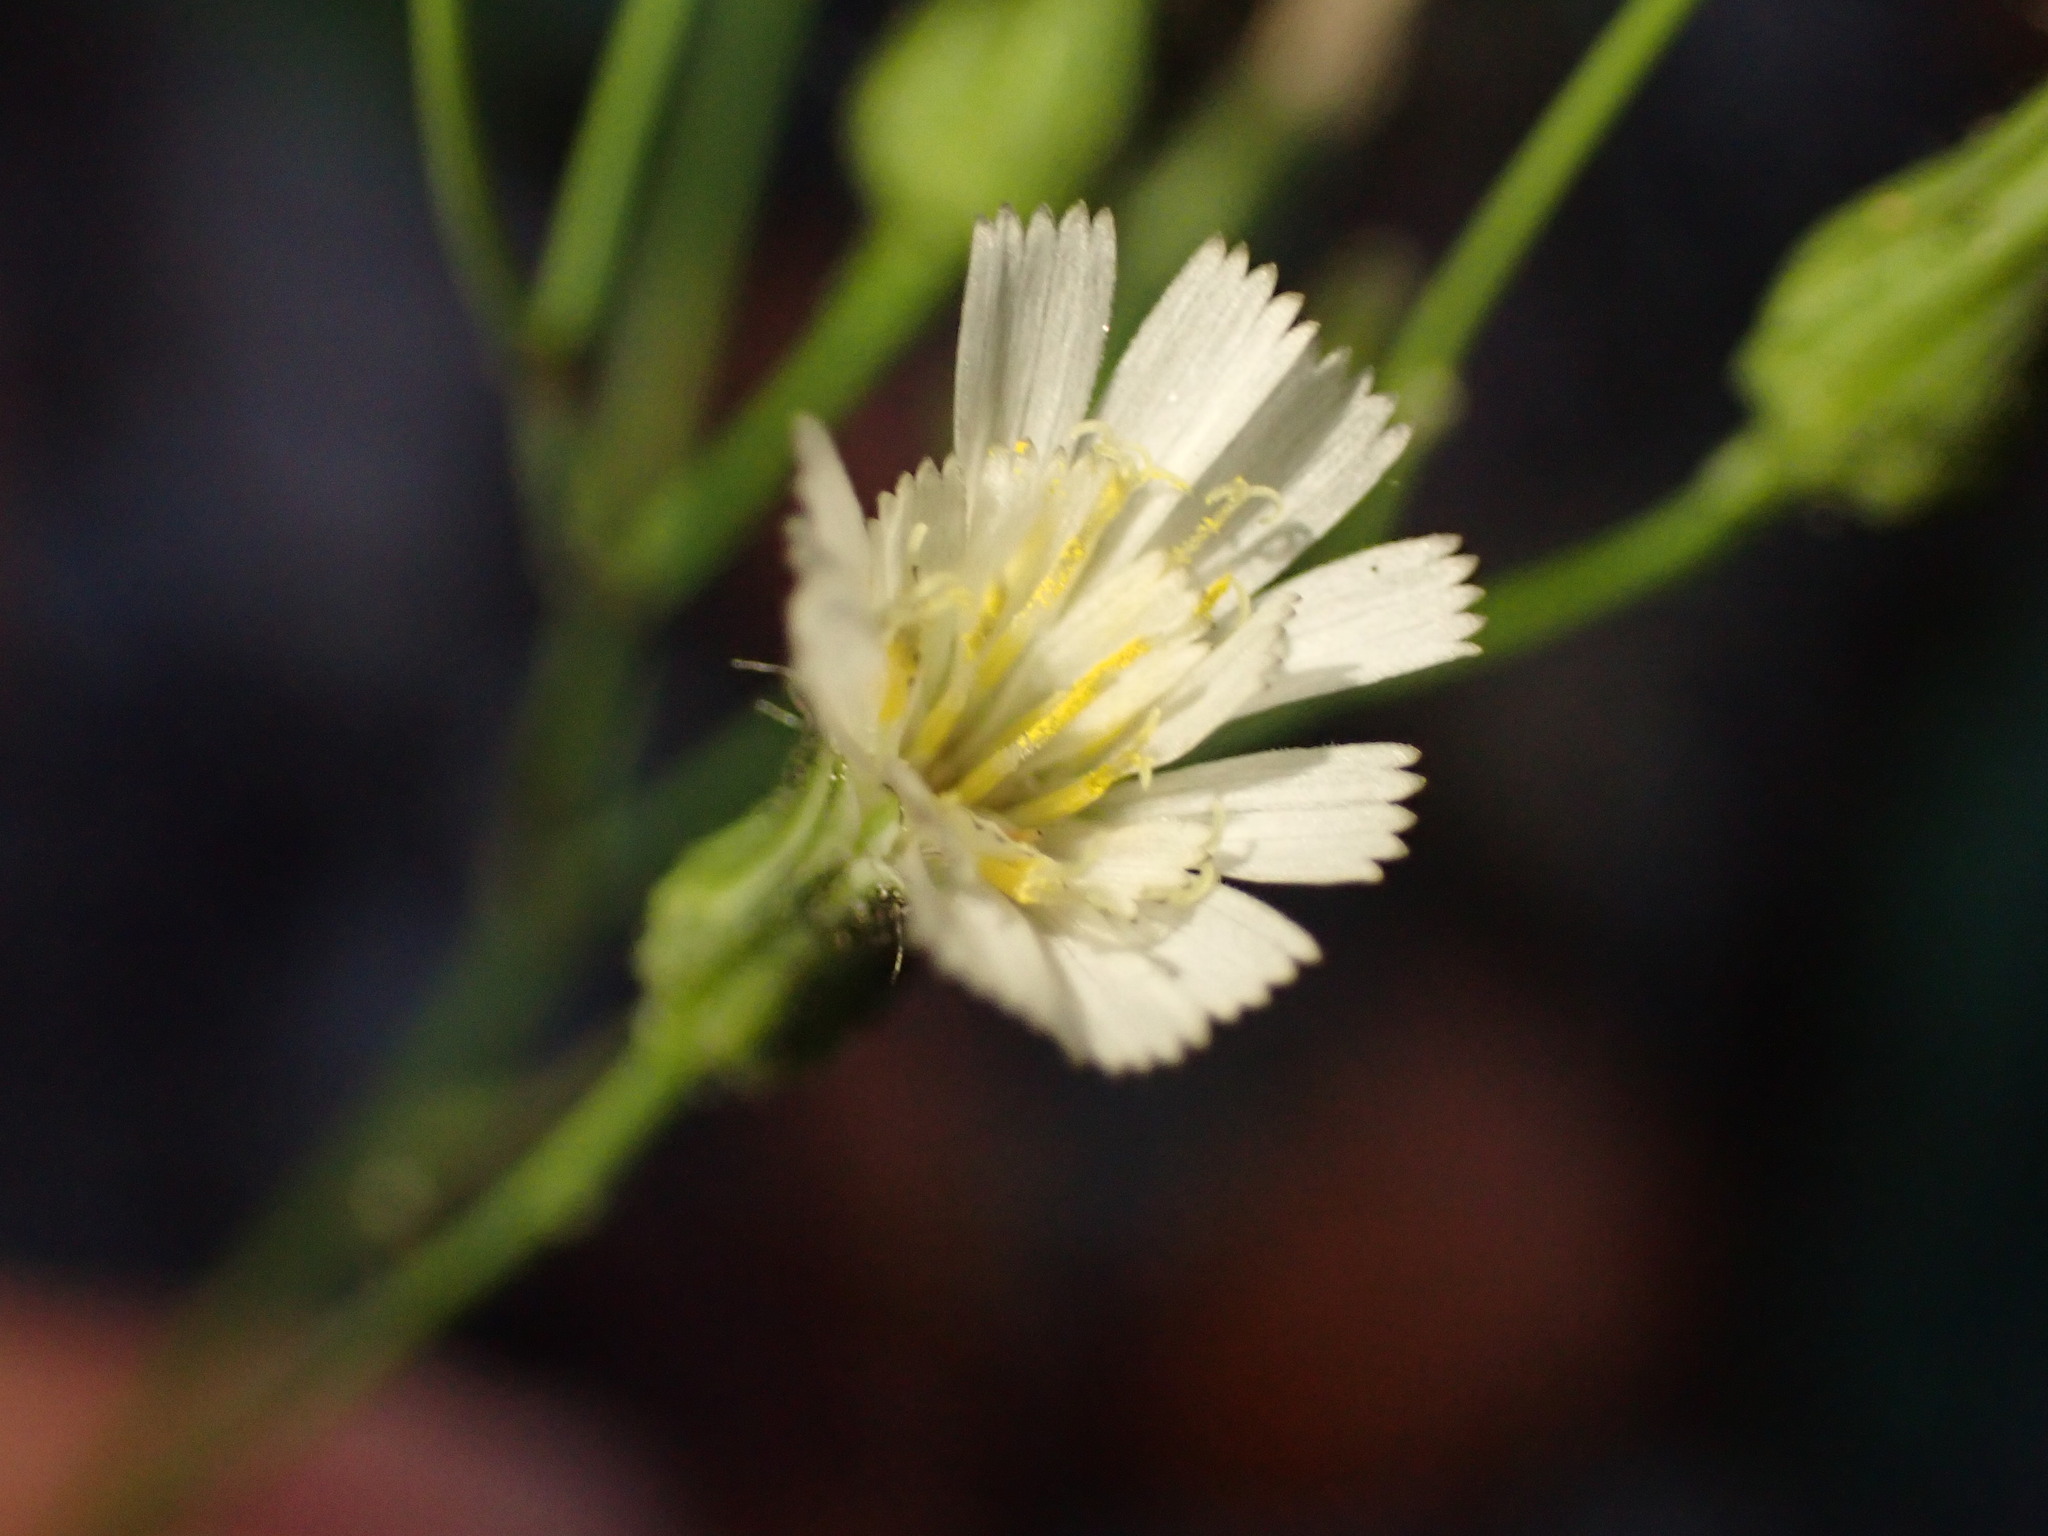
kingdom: Plantae
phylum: Tracheophyta
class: Magnoliopsida
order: Asterales
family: Asteraceae
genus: Hieracium
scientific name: Hieracium albiflorum
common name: White hawkweed
